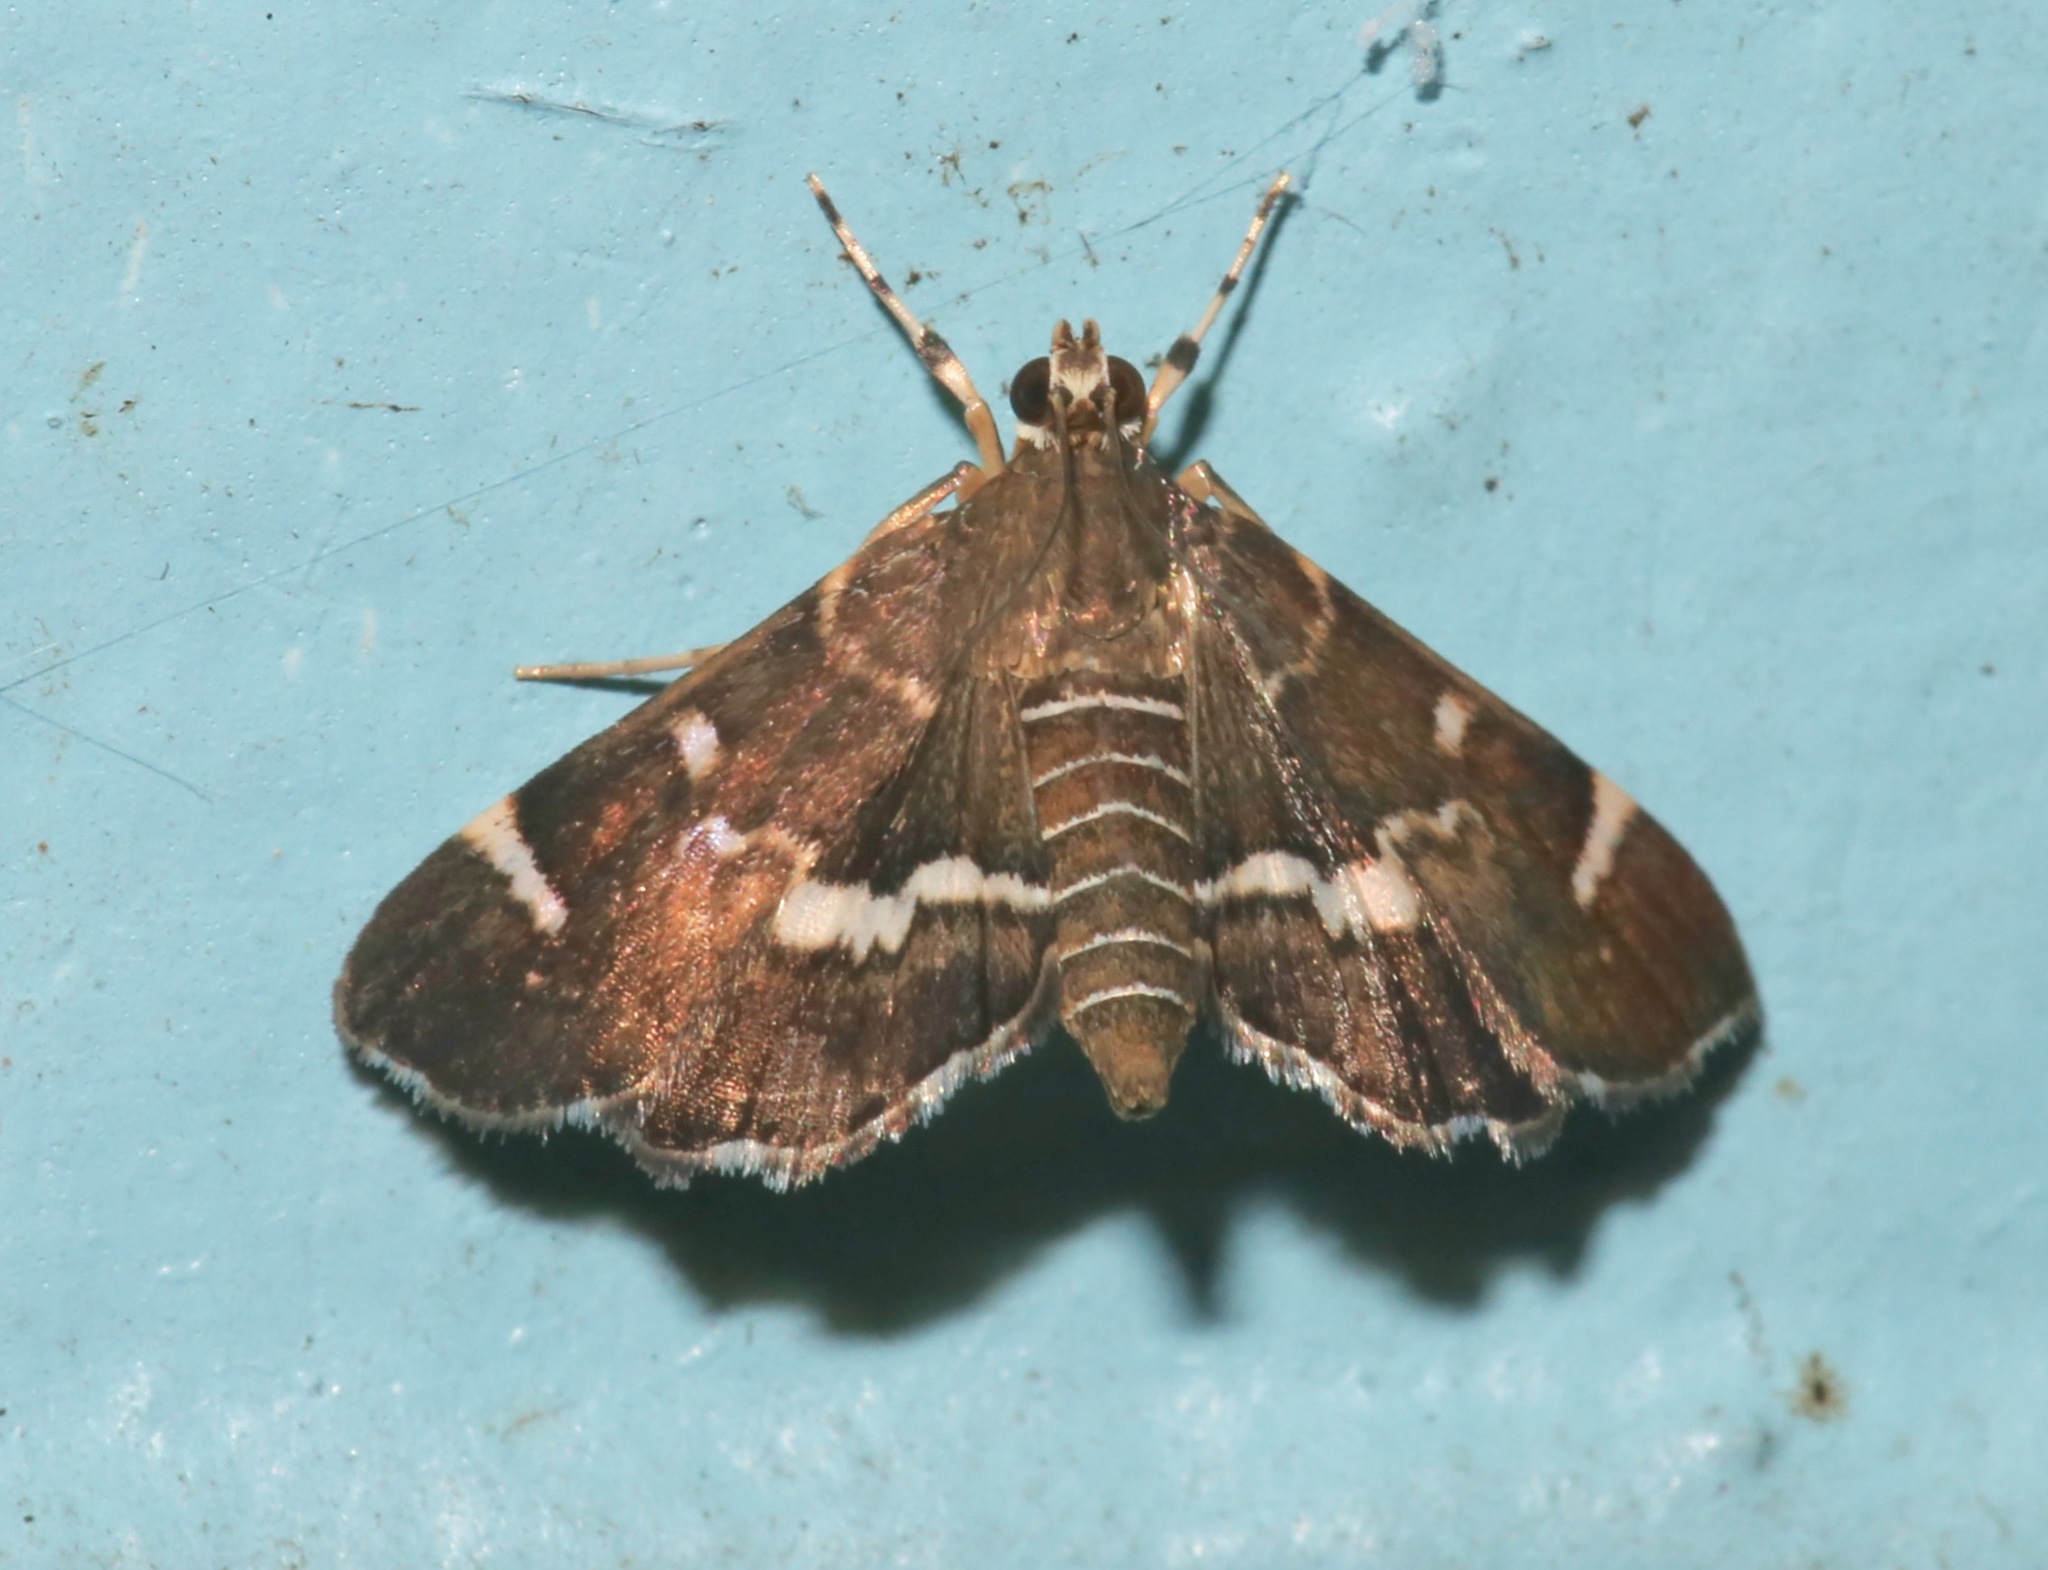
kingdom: Animalia
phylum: Arthropoda
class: Insecta
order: Lepidoptera
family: Crambidae
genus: Hymenia
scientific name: Hymenia perspectalis
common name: Spotted beet webworm
